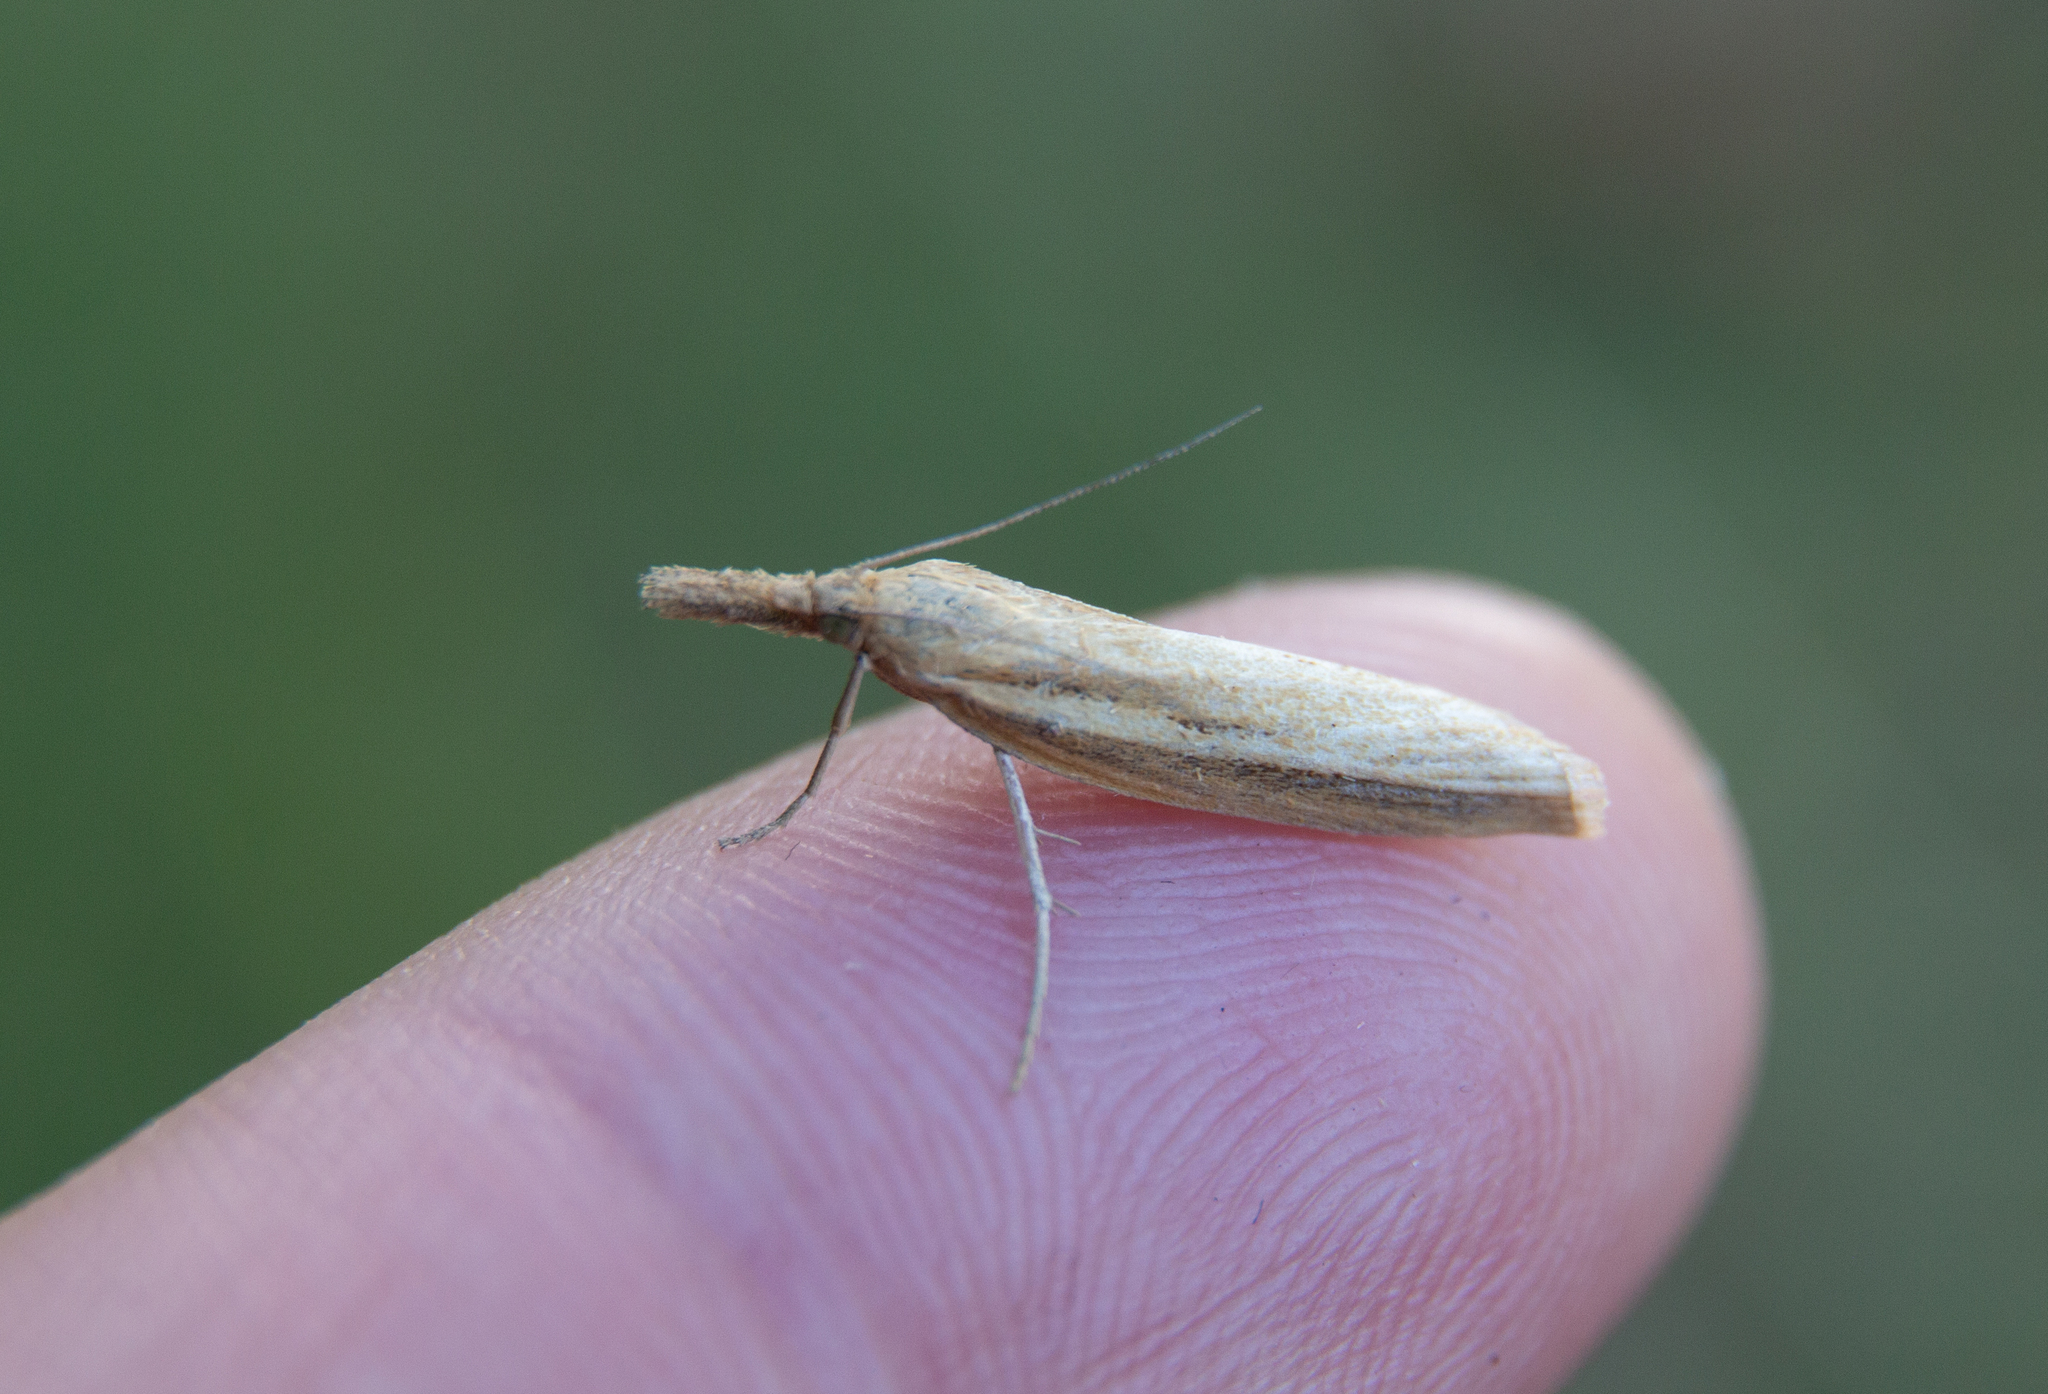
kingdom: Animalia
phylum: Arthropoda
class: Insecta
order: Lepidoptera
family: Crambidae
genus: Agriphila
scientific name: Agriphila tristellus
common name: Common grass-veneer
